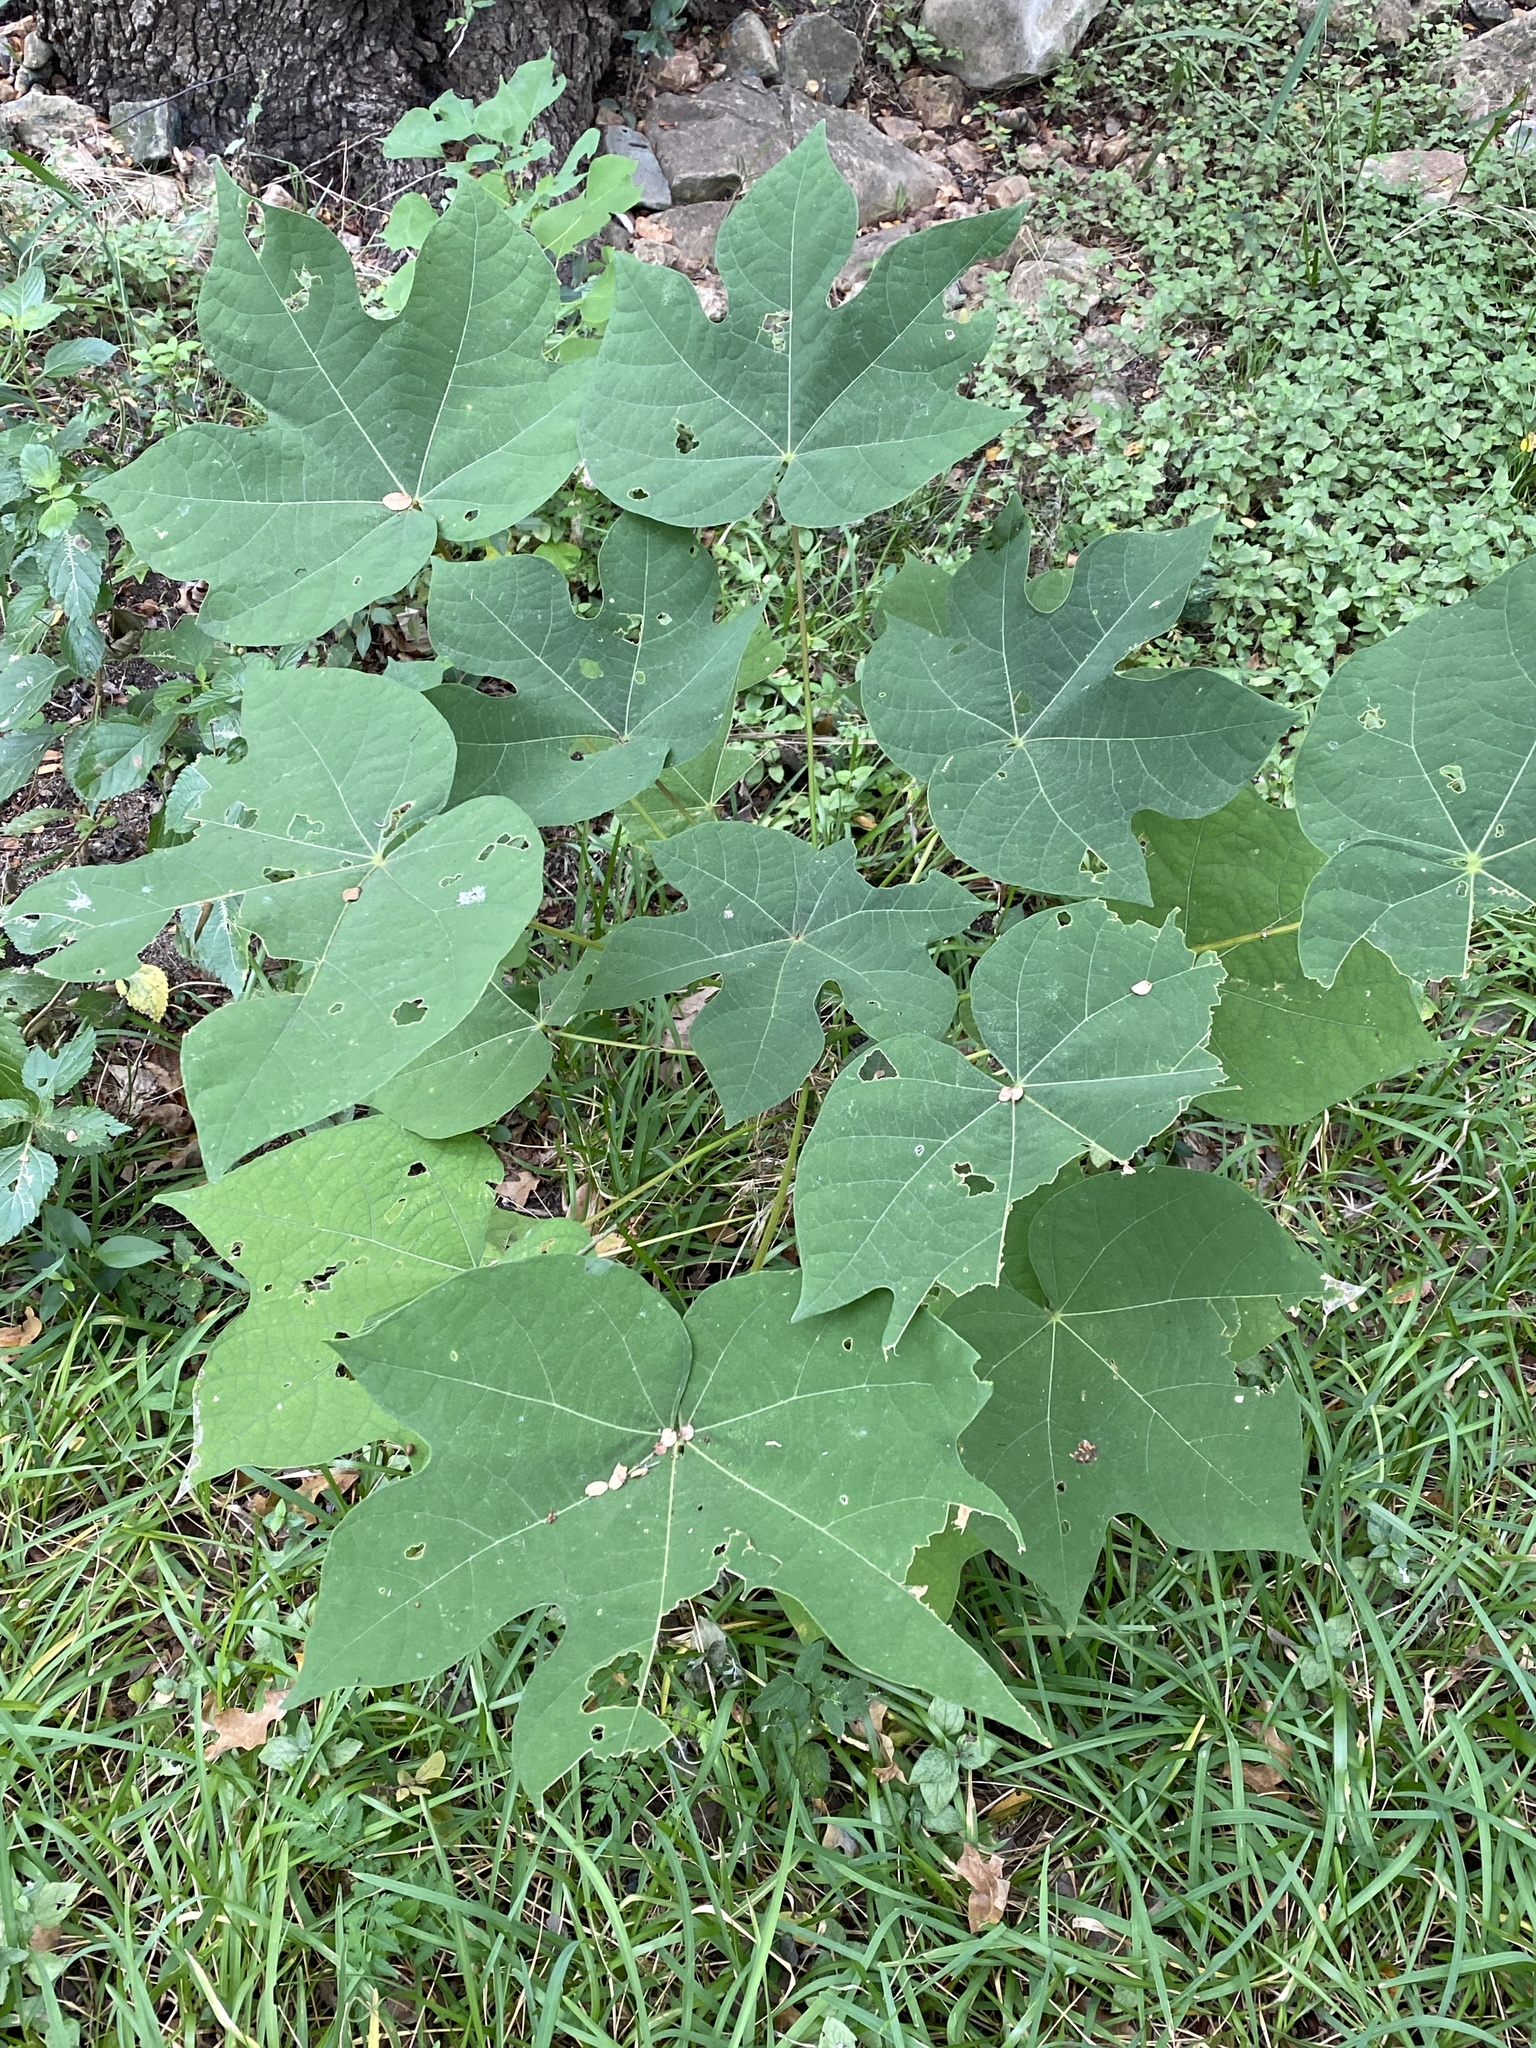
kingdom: Plantae
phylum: Tracheophyta
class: Magnoliopsida
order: Malvales
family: Malvaceae
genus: Firmiana
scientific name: Firmiana simplex
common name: Chinese parasoltree
